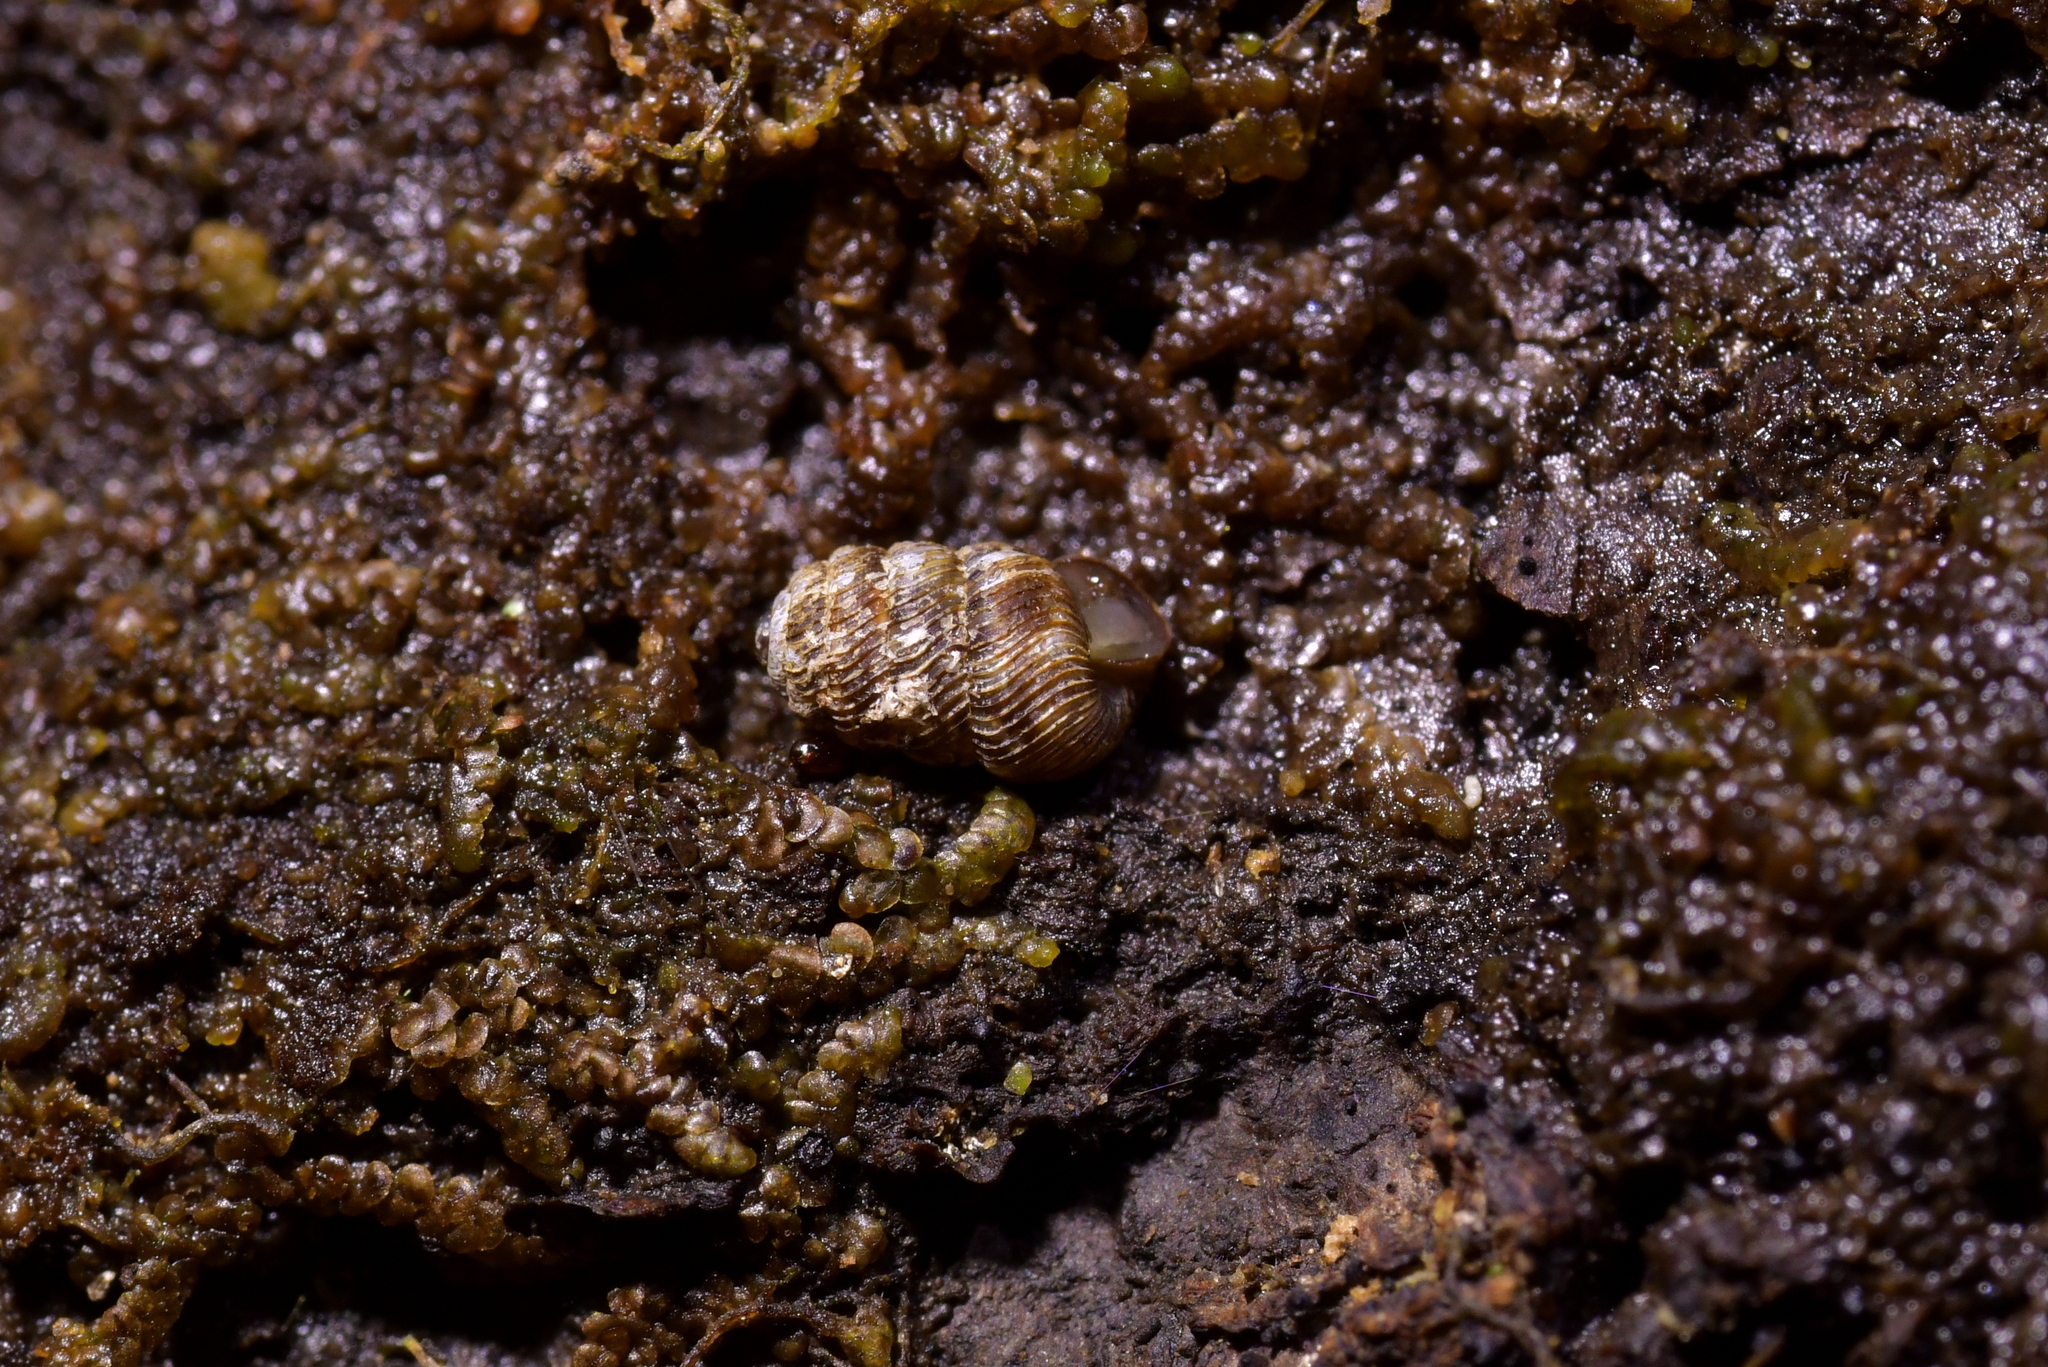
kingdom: Animalia
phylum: Mollusca
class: Gastropoda
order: Stylommatophora
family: Charopidae
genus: Phenacharopa
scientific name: Phenacharopa novoseelandica
